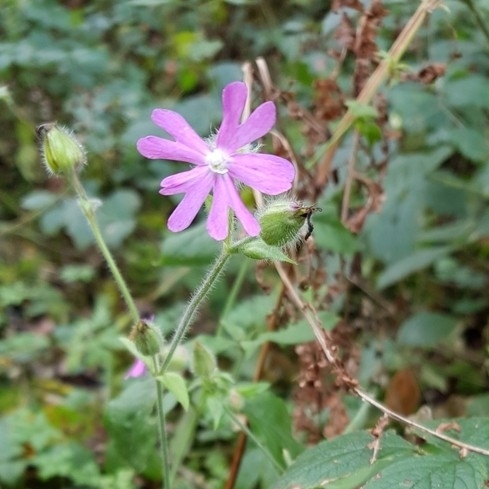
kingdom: Plantae
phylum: Tracheophyta
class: Magnoliopsida
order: Caryophyllales
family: Caryophyllaceae
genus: Silene
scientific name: Silene dioica
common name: Red campion
